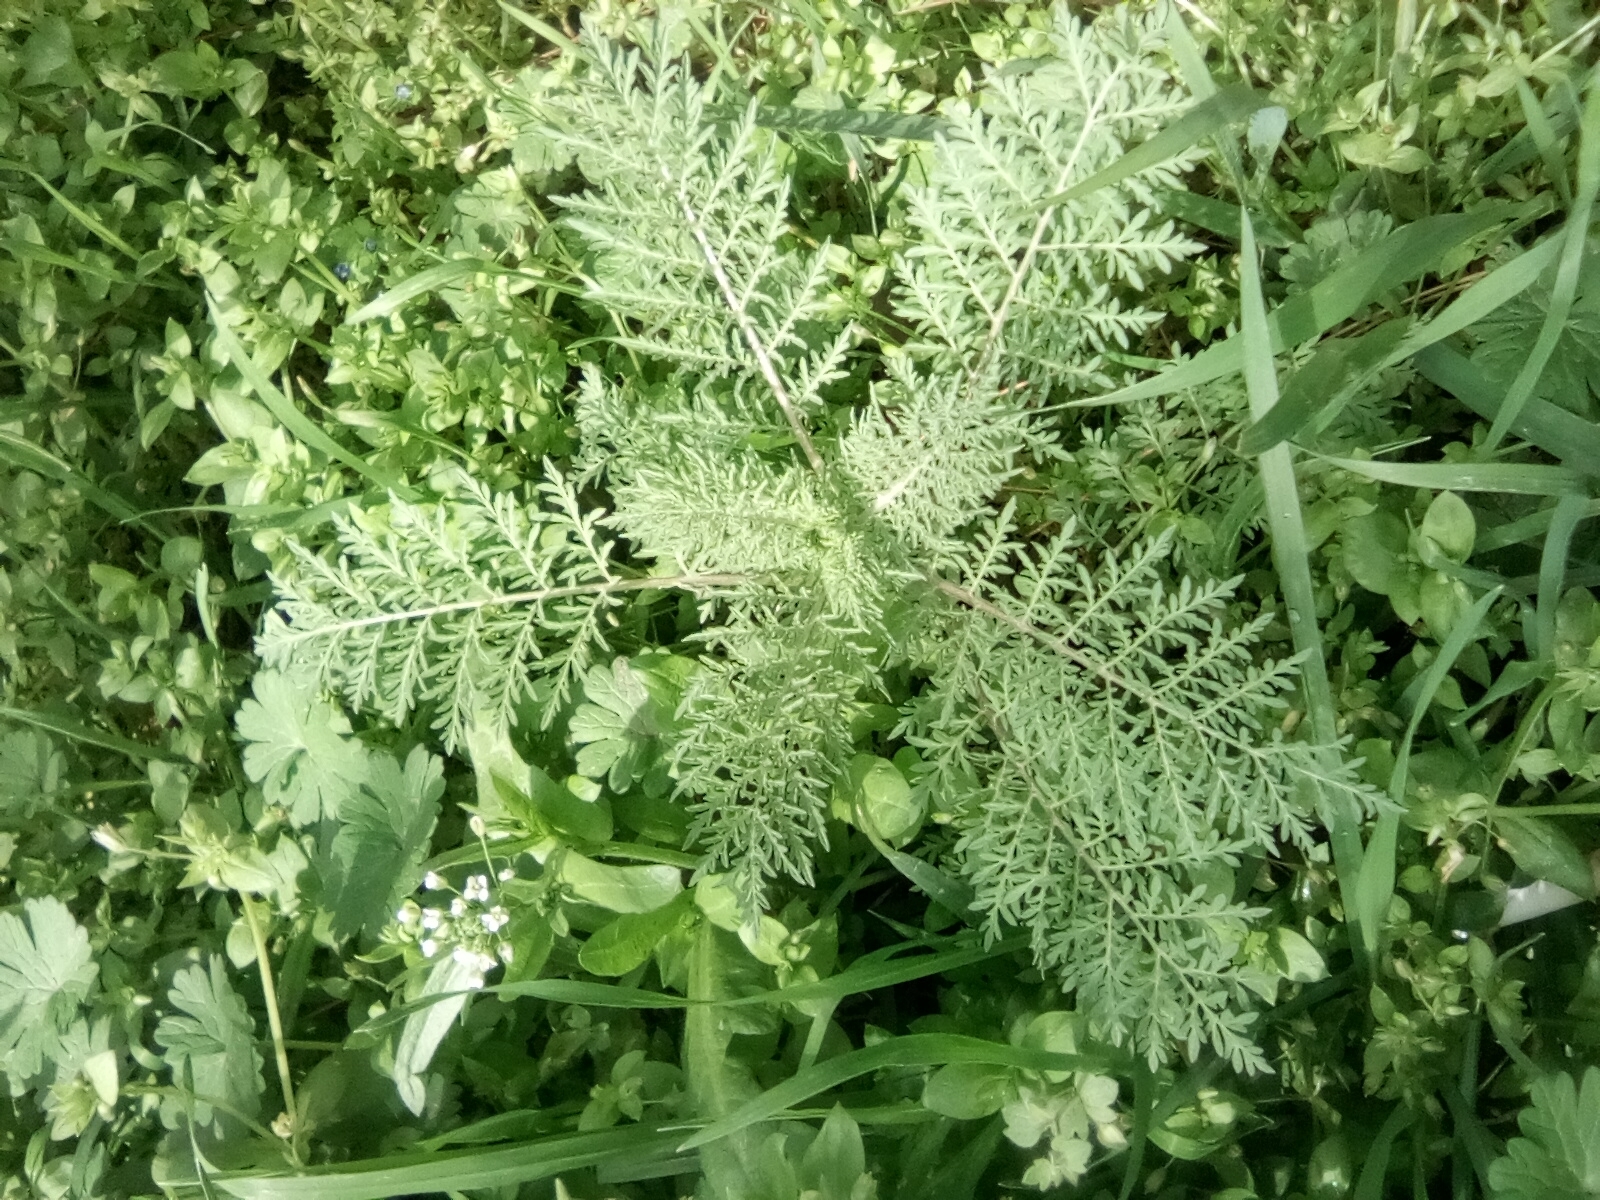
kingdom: Plantae
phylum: Tracheophyta
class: Magnoliopsida
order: Brassicales
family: Brassicaceae
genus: Descurainia
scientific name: Descurainia sophia
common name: Flixweed
